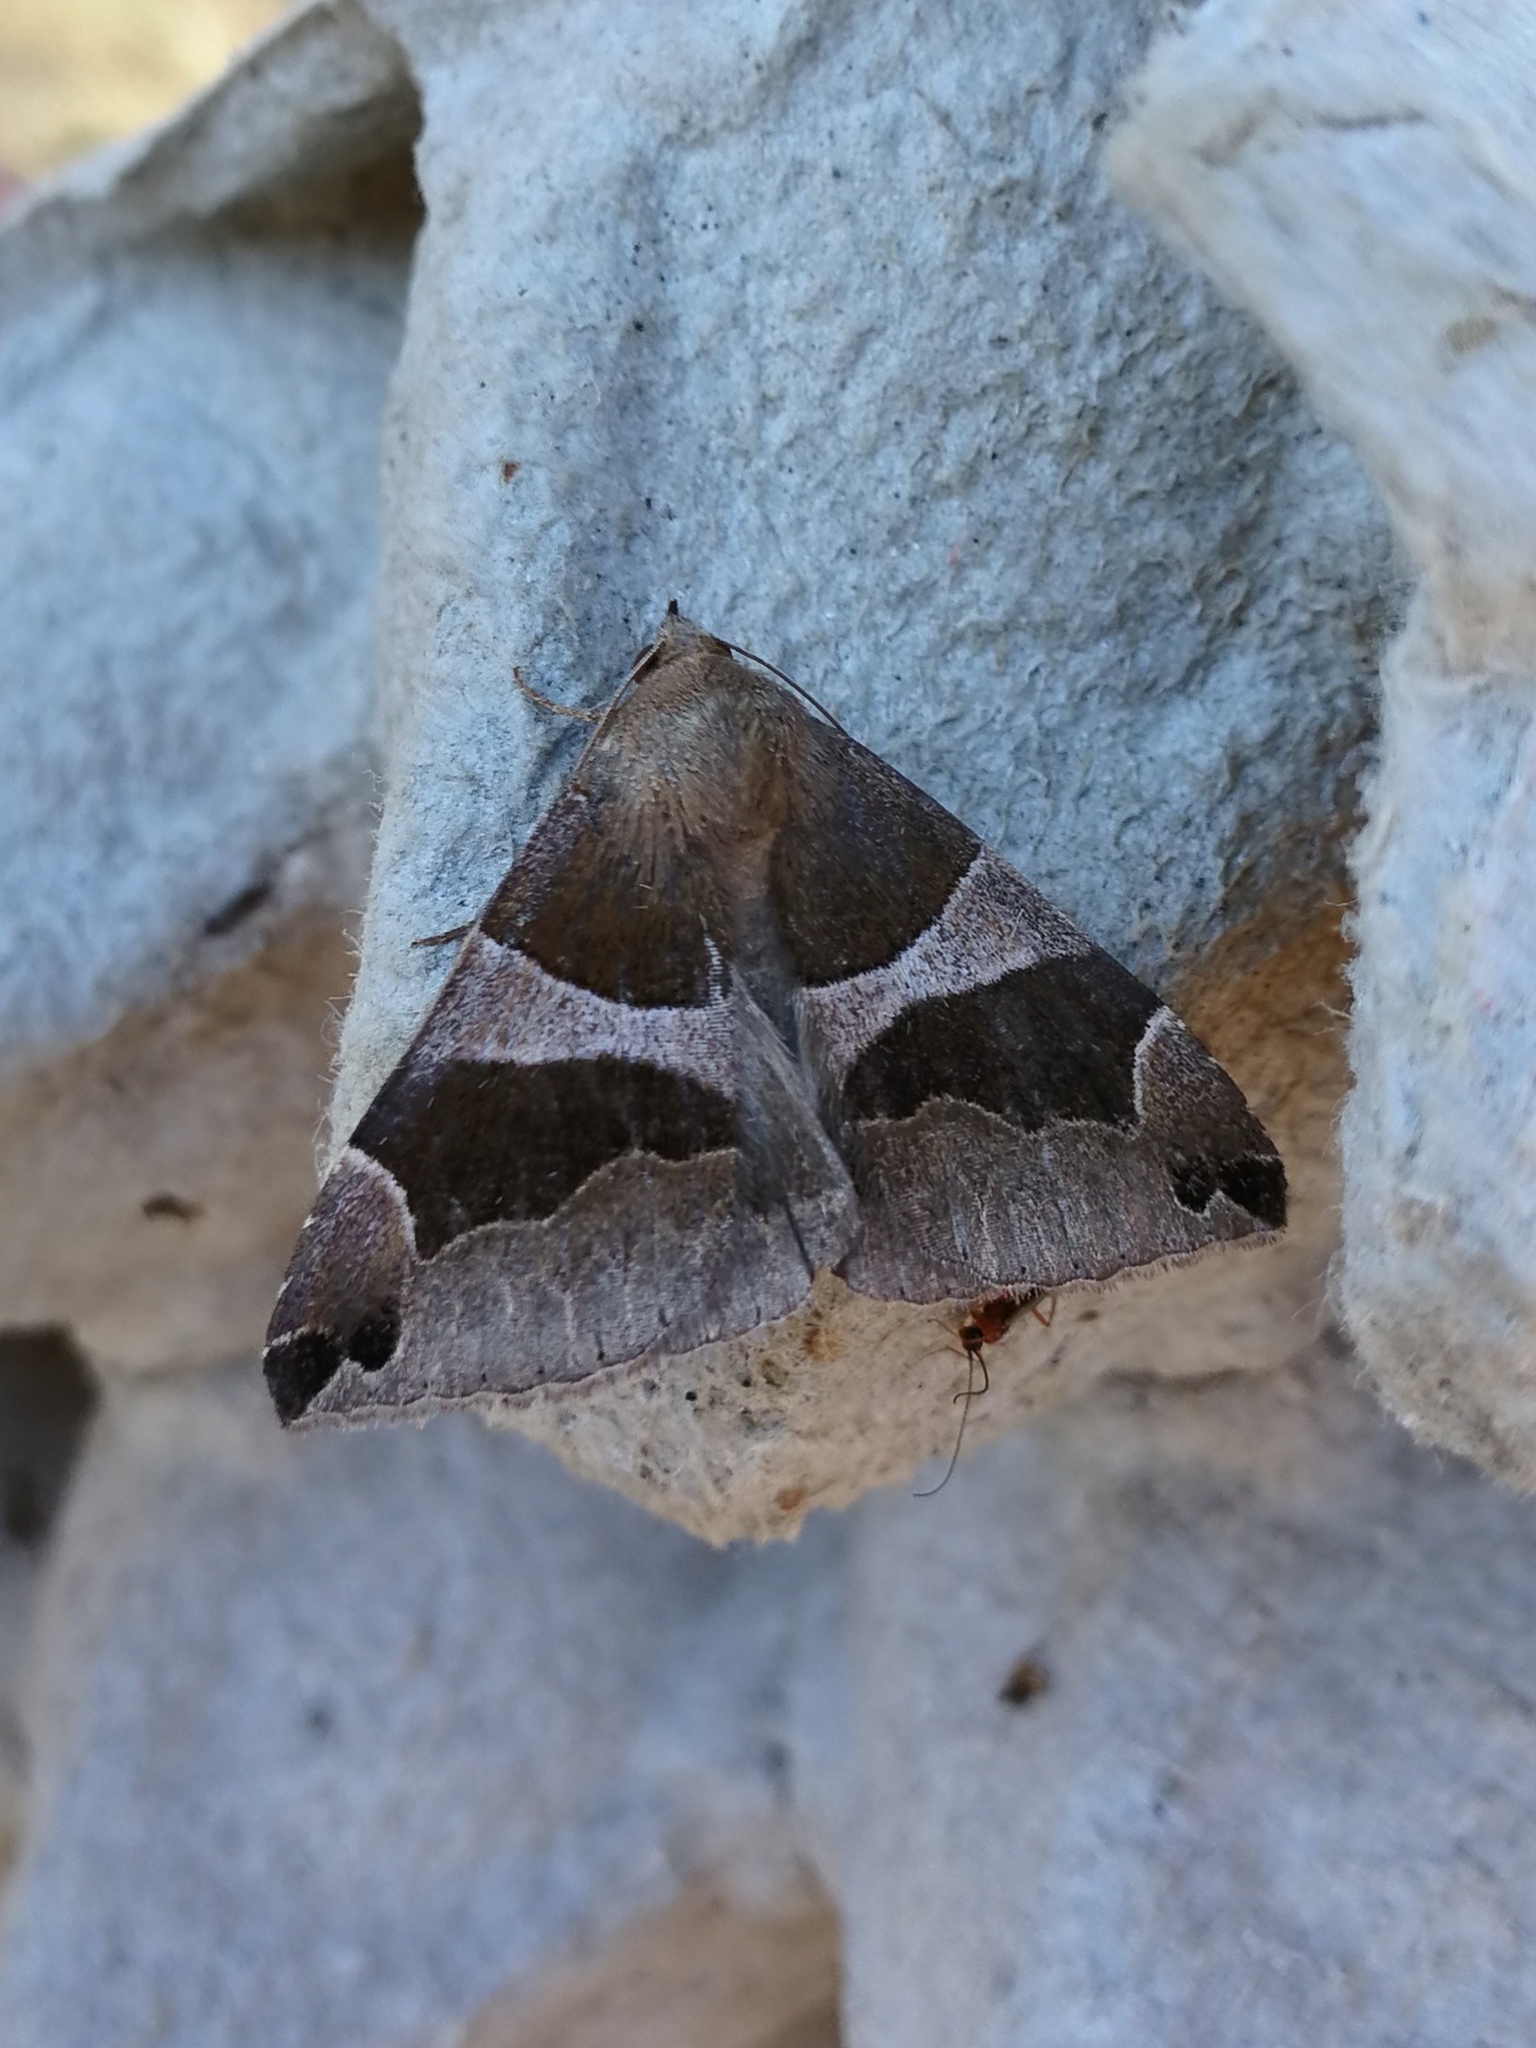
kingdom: Animalia
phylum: Arthropoda
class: Insecta
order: Lepidoptera
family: Erebidae
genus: Dysgonia
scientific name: Dysgonia algira
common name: Passenger
